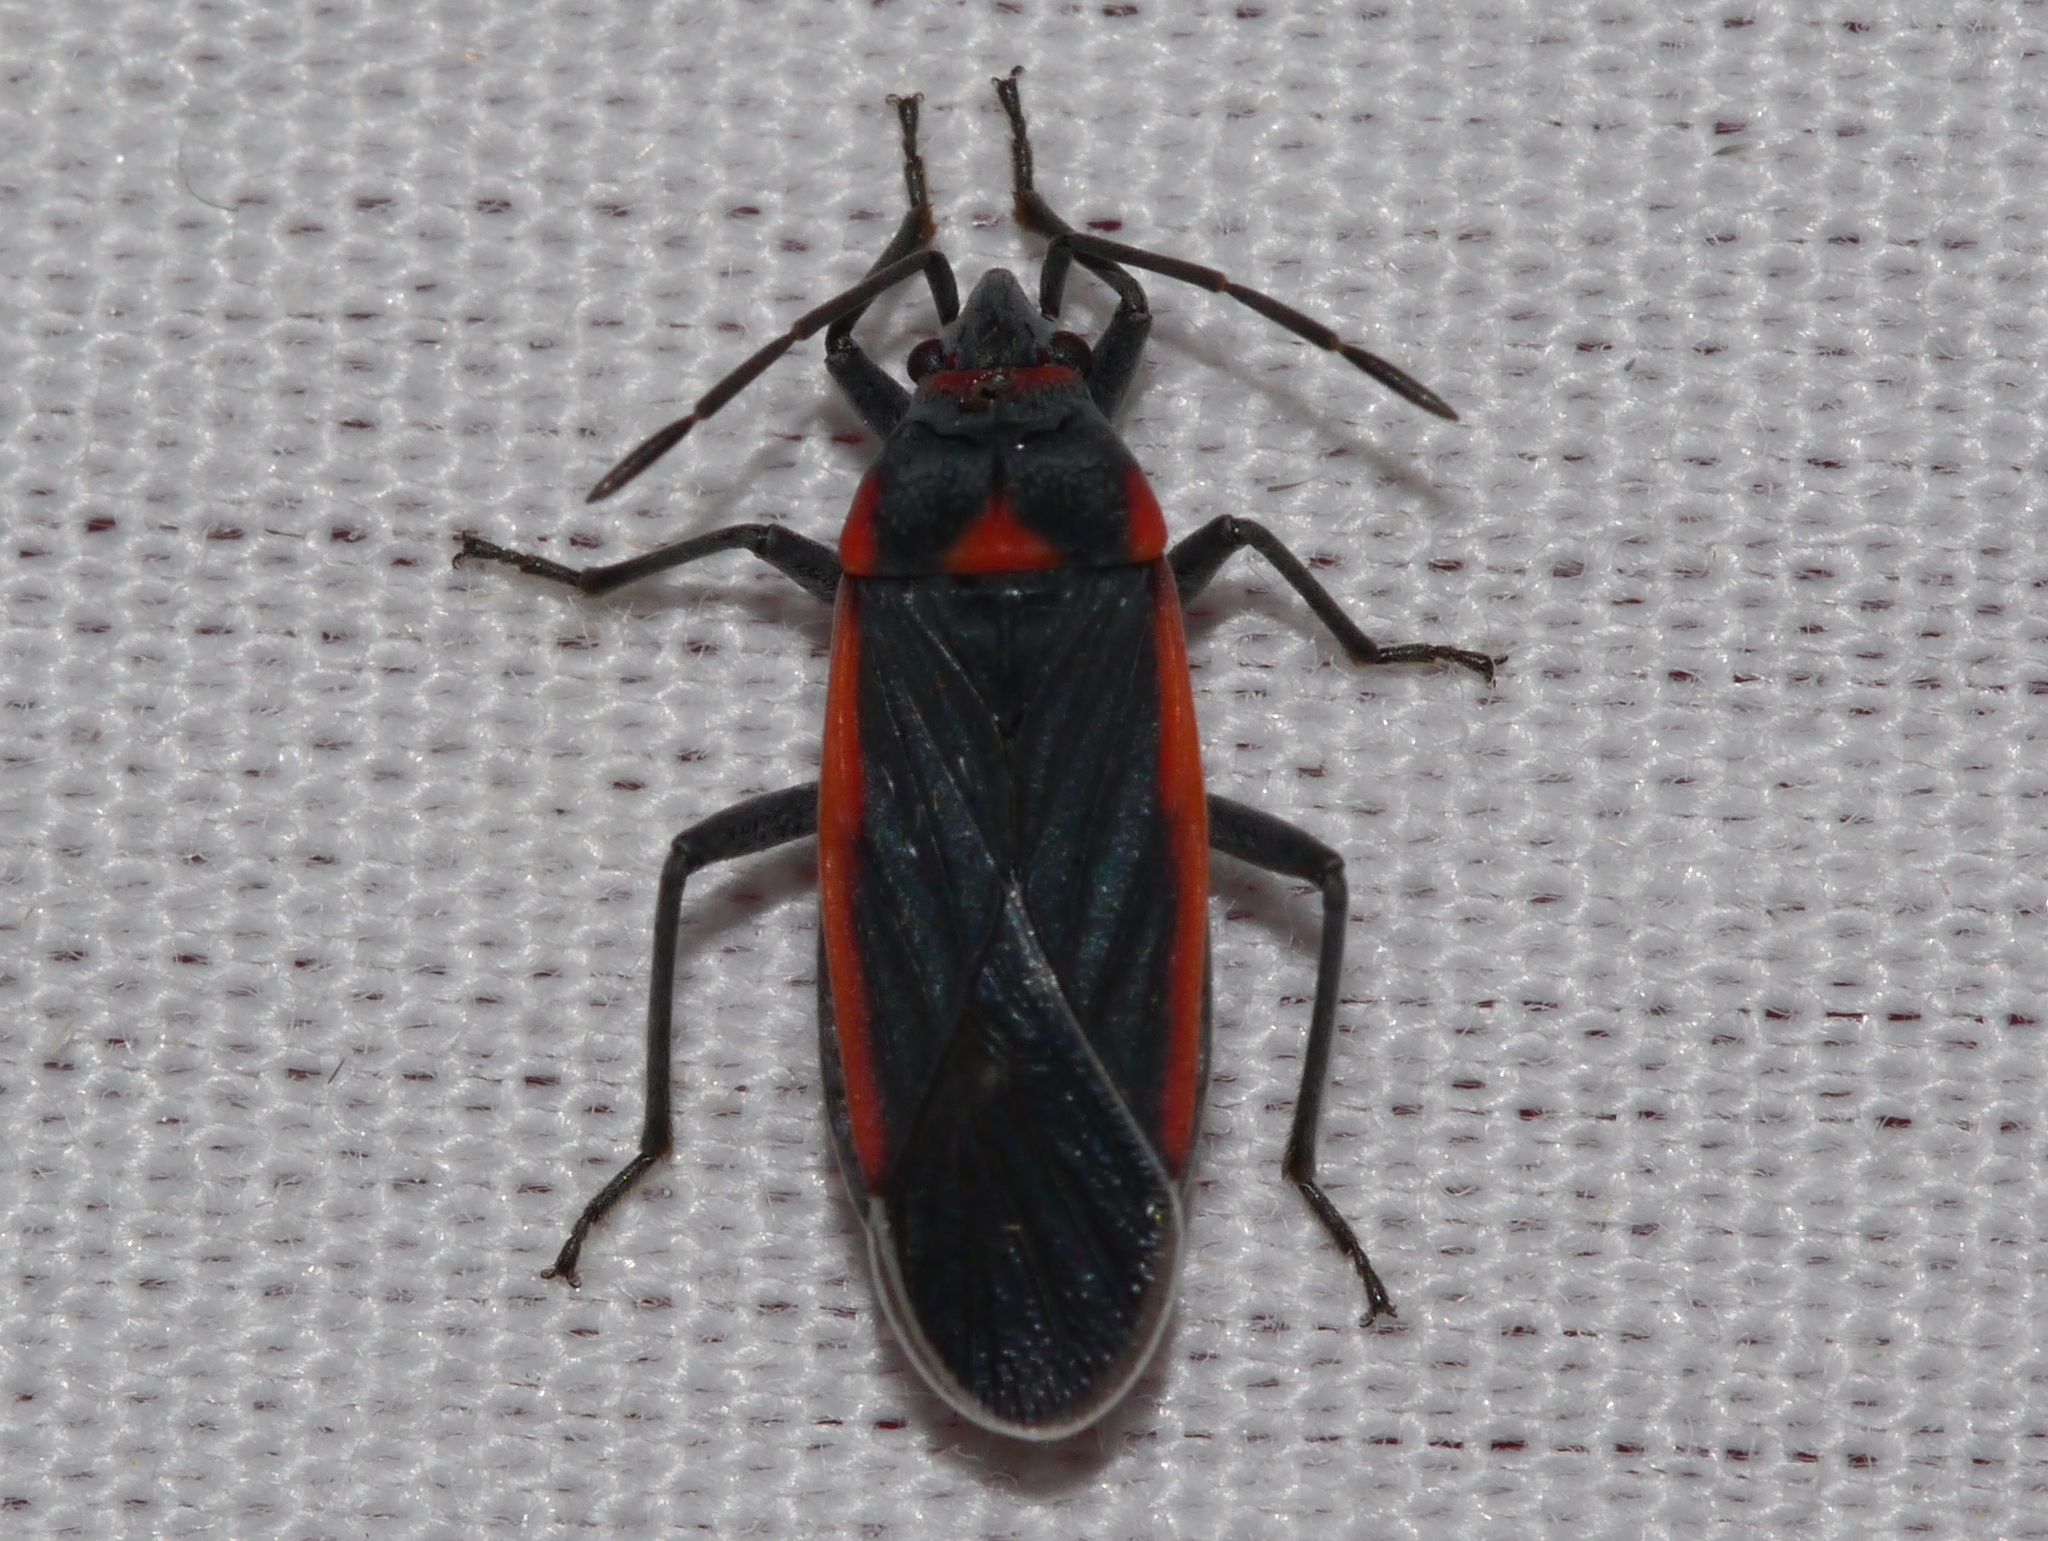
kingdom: Animalia
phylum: Arthropoda
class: Insecta
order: Hemiptera
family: Lygaeidae
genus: Melacoryphus
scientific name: Melacoryphus lateralis
